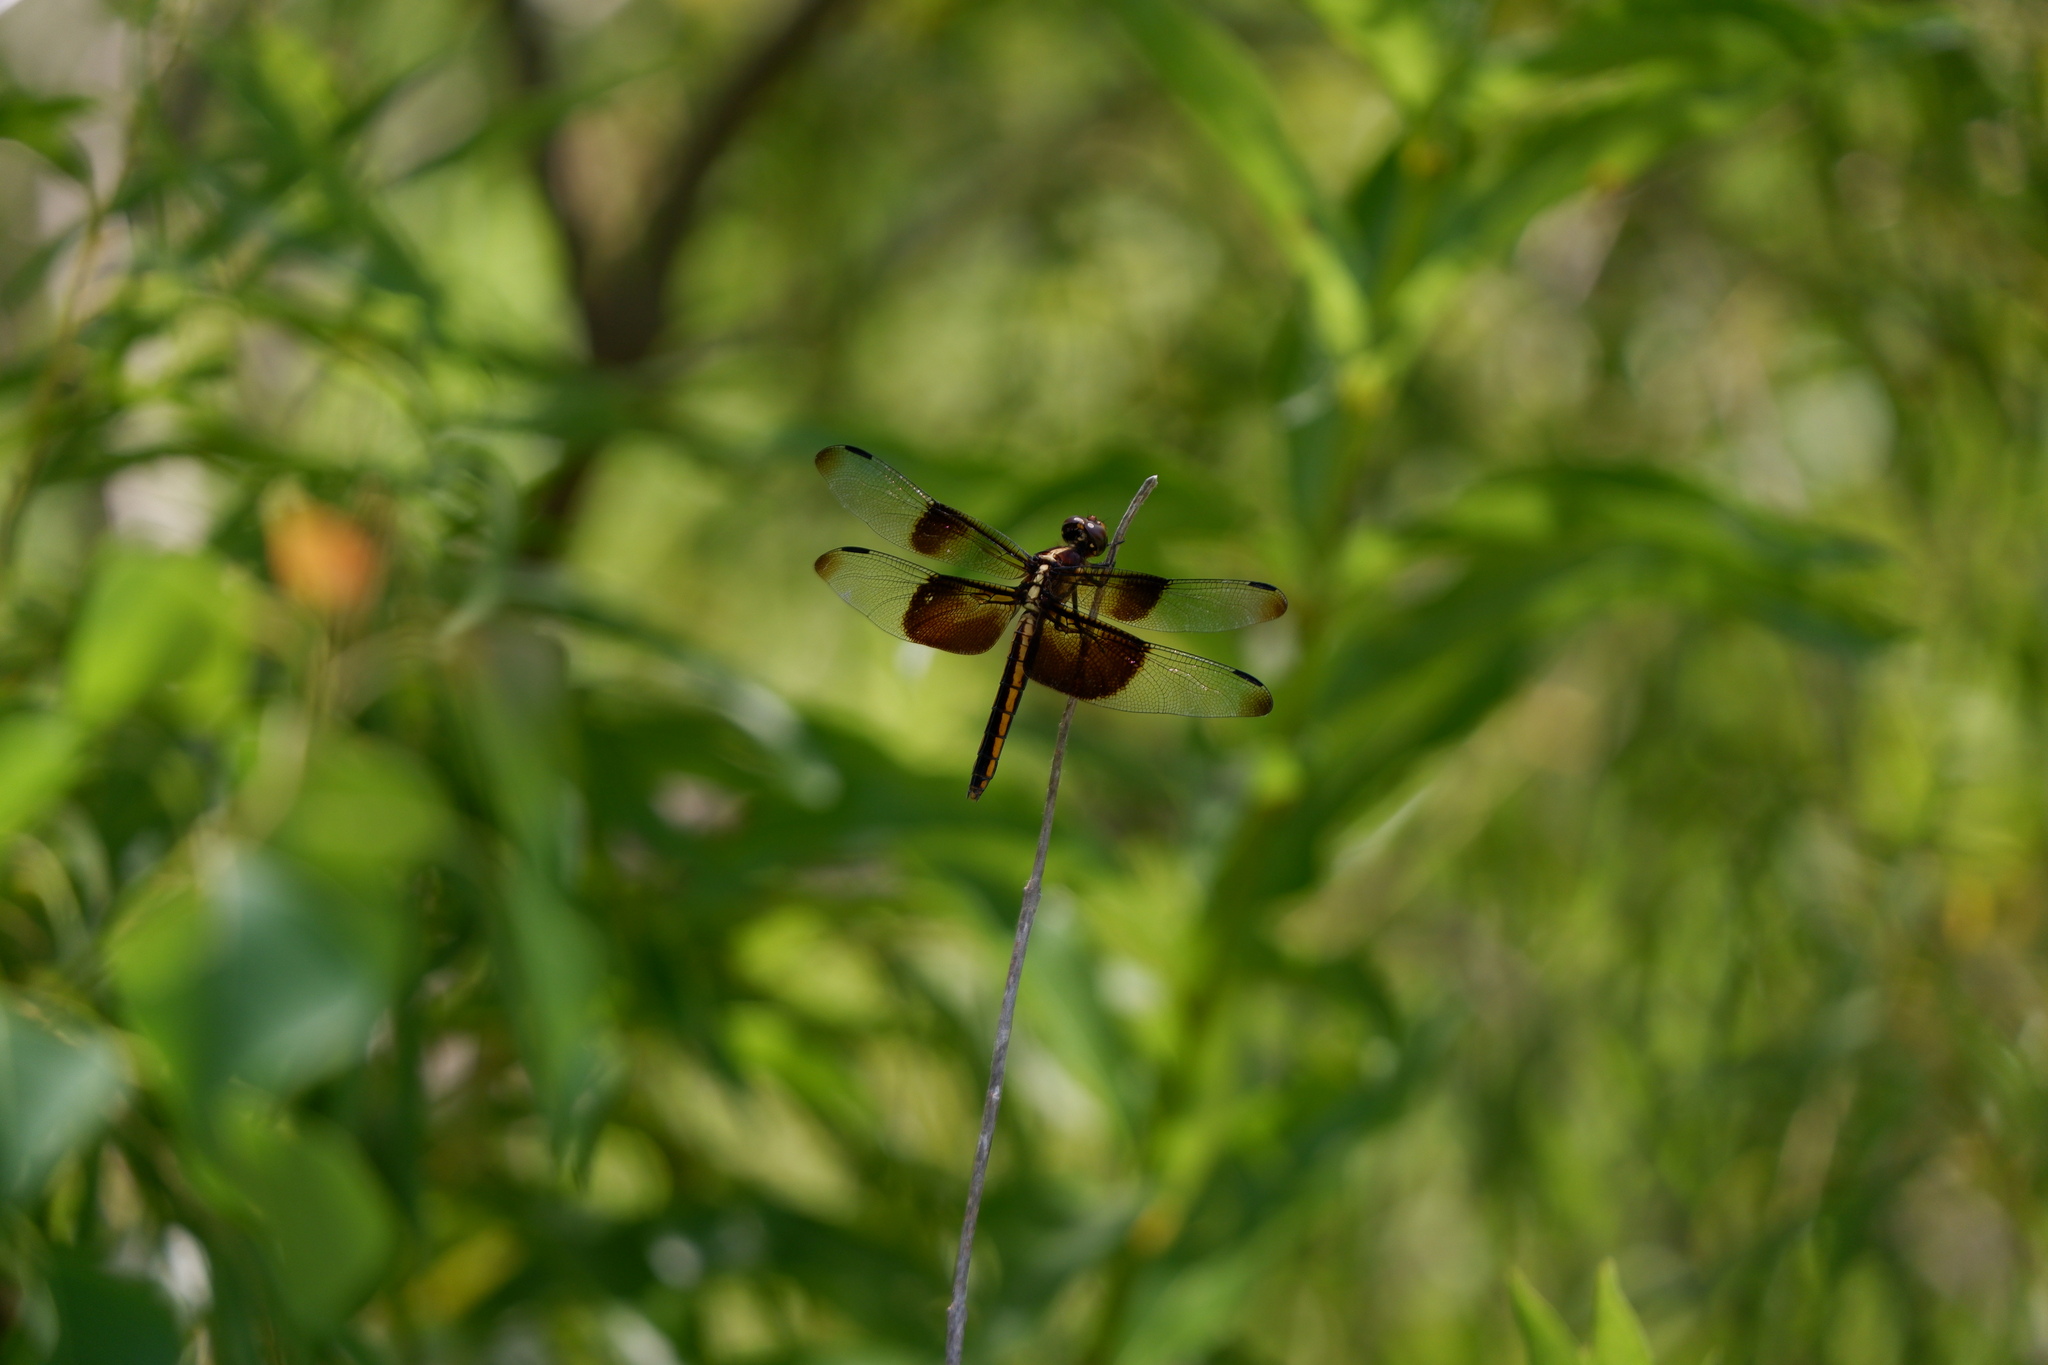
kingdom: Animalia
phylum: Arthropoda
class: Insecta
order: Odonata
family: Libellulidae
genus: Libellula
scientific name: Libellula luctuosa
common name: Widow skimmer
